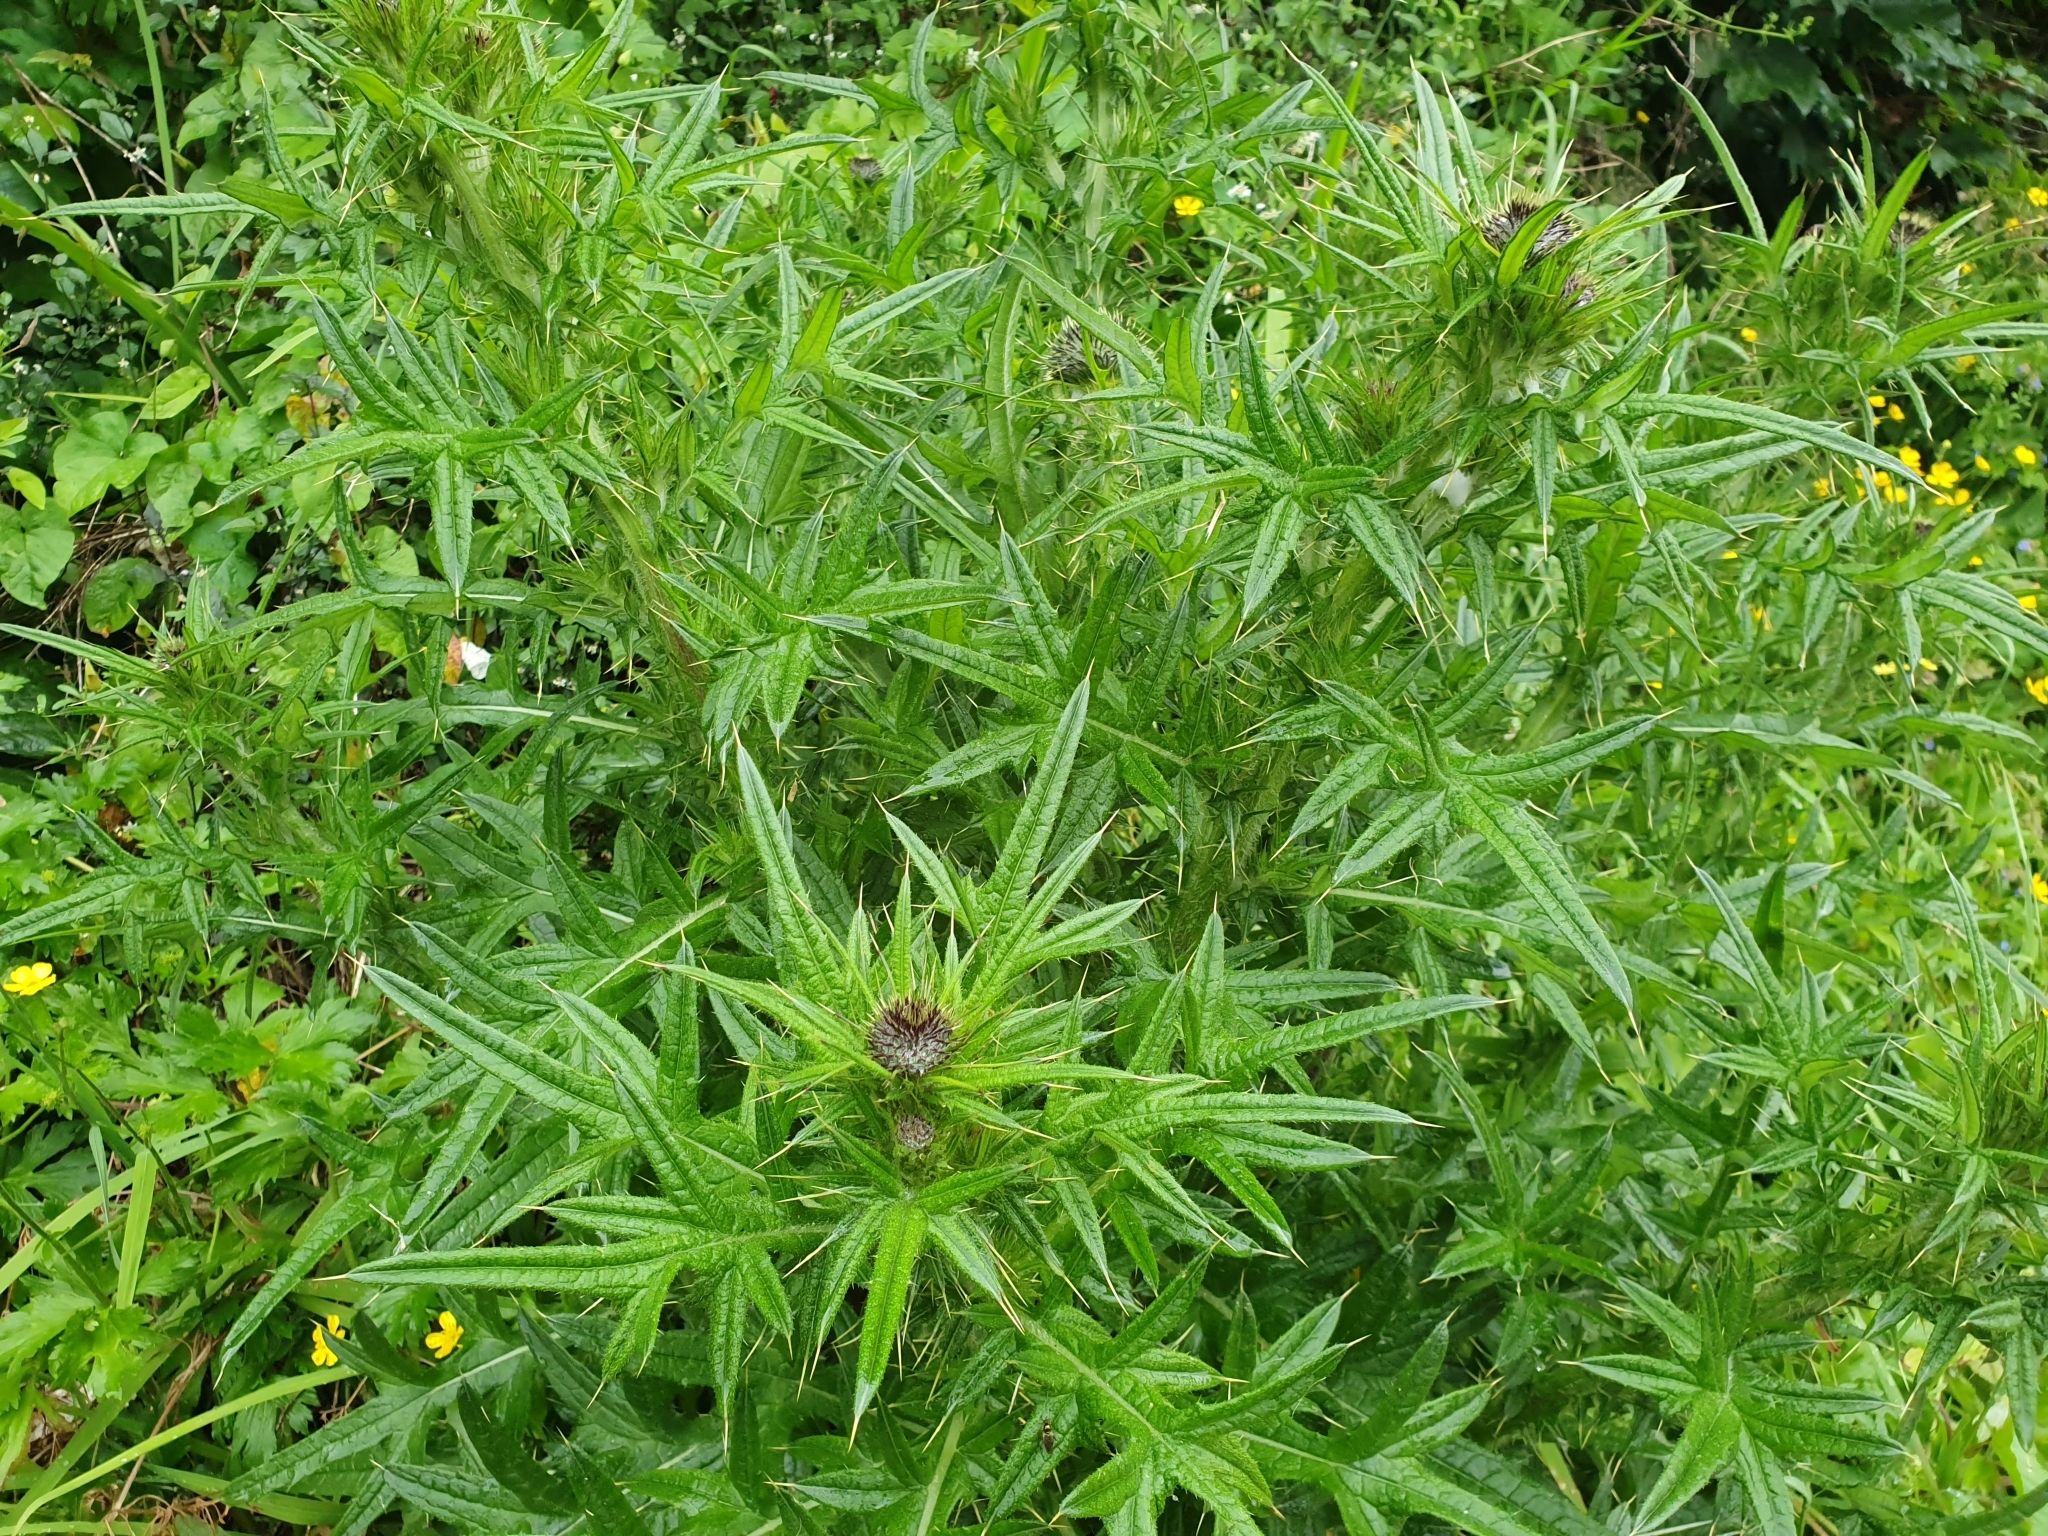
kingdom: Plantae
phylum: Tracheophyta
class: Magnoliopsida
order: Asterales
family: Asteraceae
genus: Cirsium
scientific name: Cirsium vulgare
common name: Bull thistle
